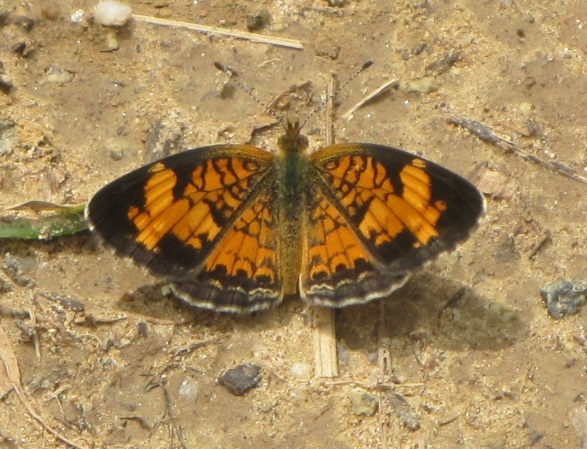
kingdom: Animalia
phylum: Arthropoda
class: Insecta
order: Lepidoptera
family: Nymphalidae
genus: Phyciodes
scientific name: Phyciodes tharos
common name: Pearl crescent
